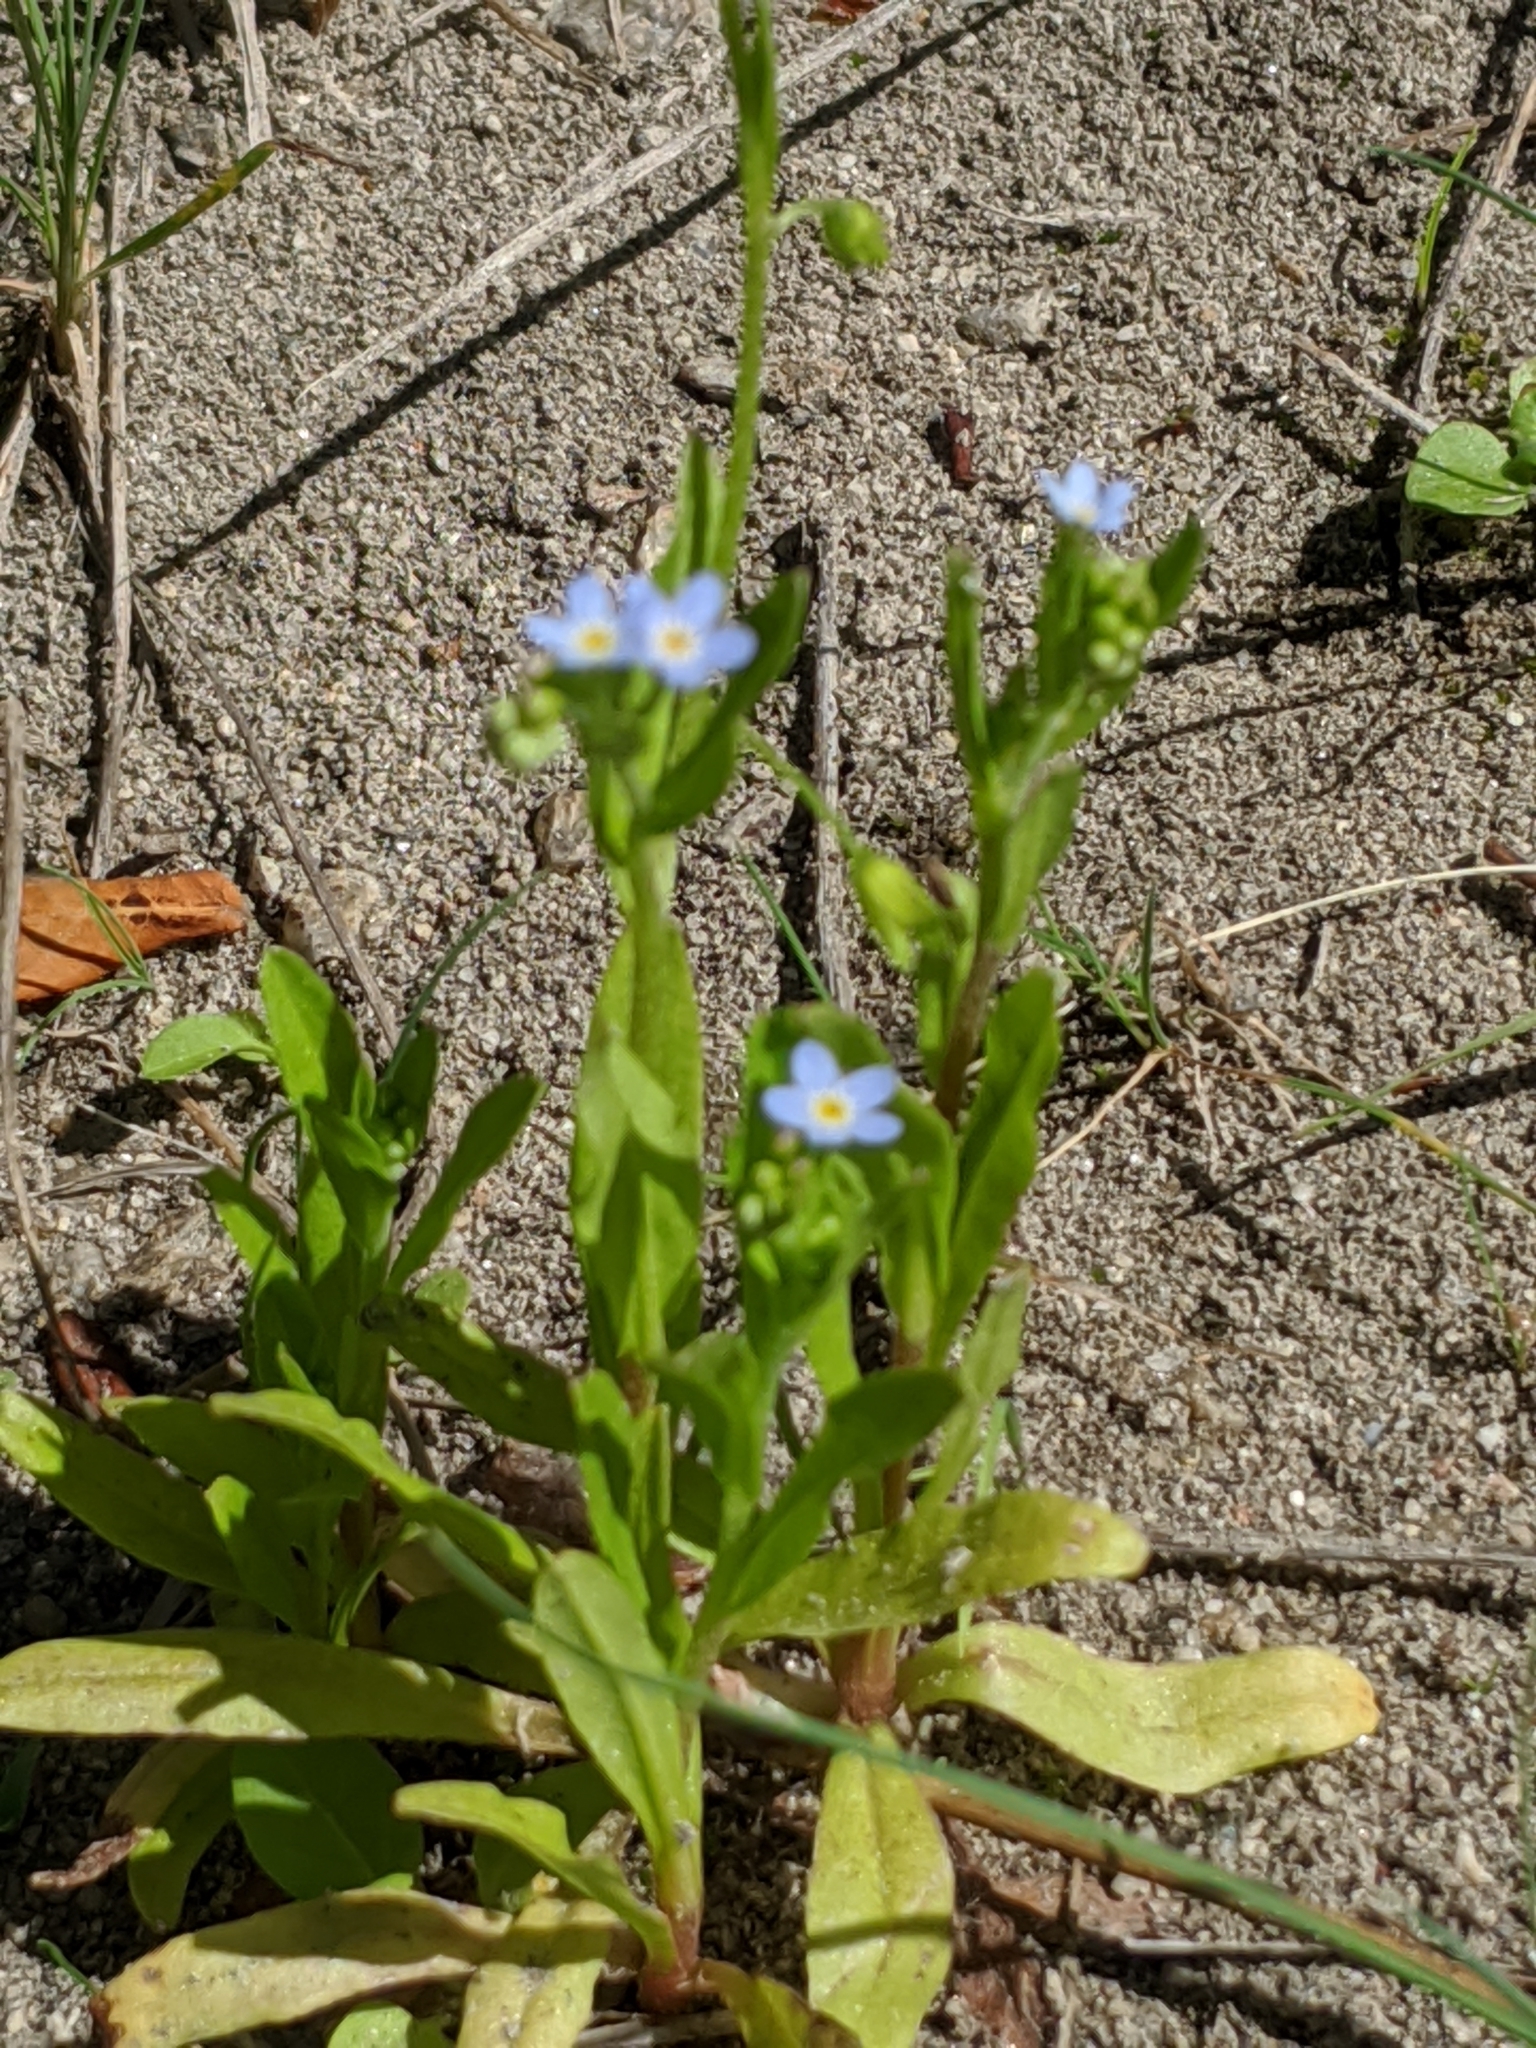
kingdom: Plantae
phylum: Tracheophyta
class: Magnoliopsida
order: Boraginales
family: Boraginaceae
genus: Myosotis
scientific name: Myosotis laxa
